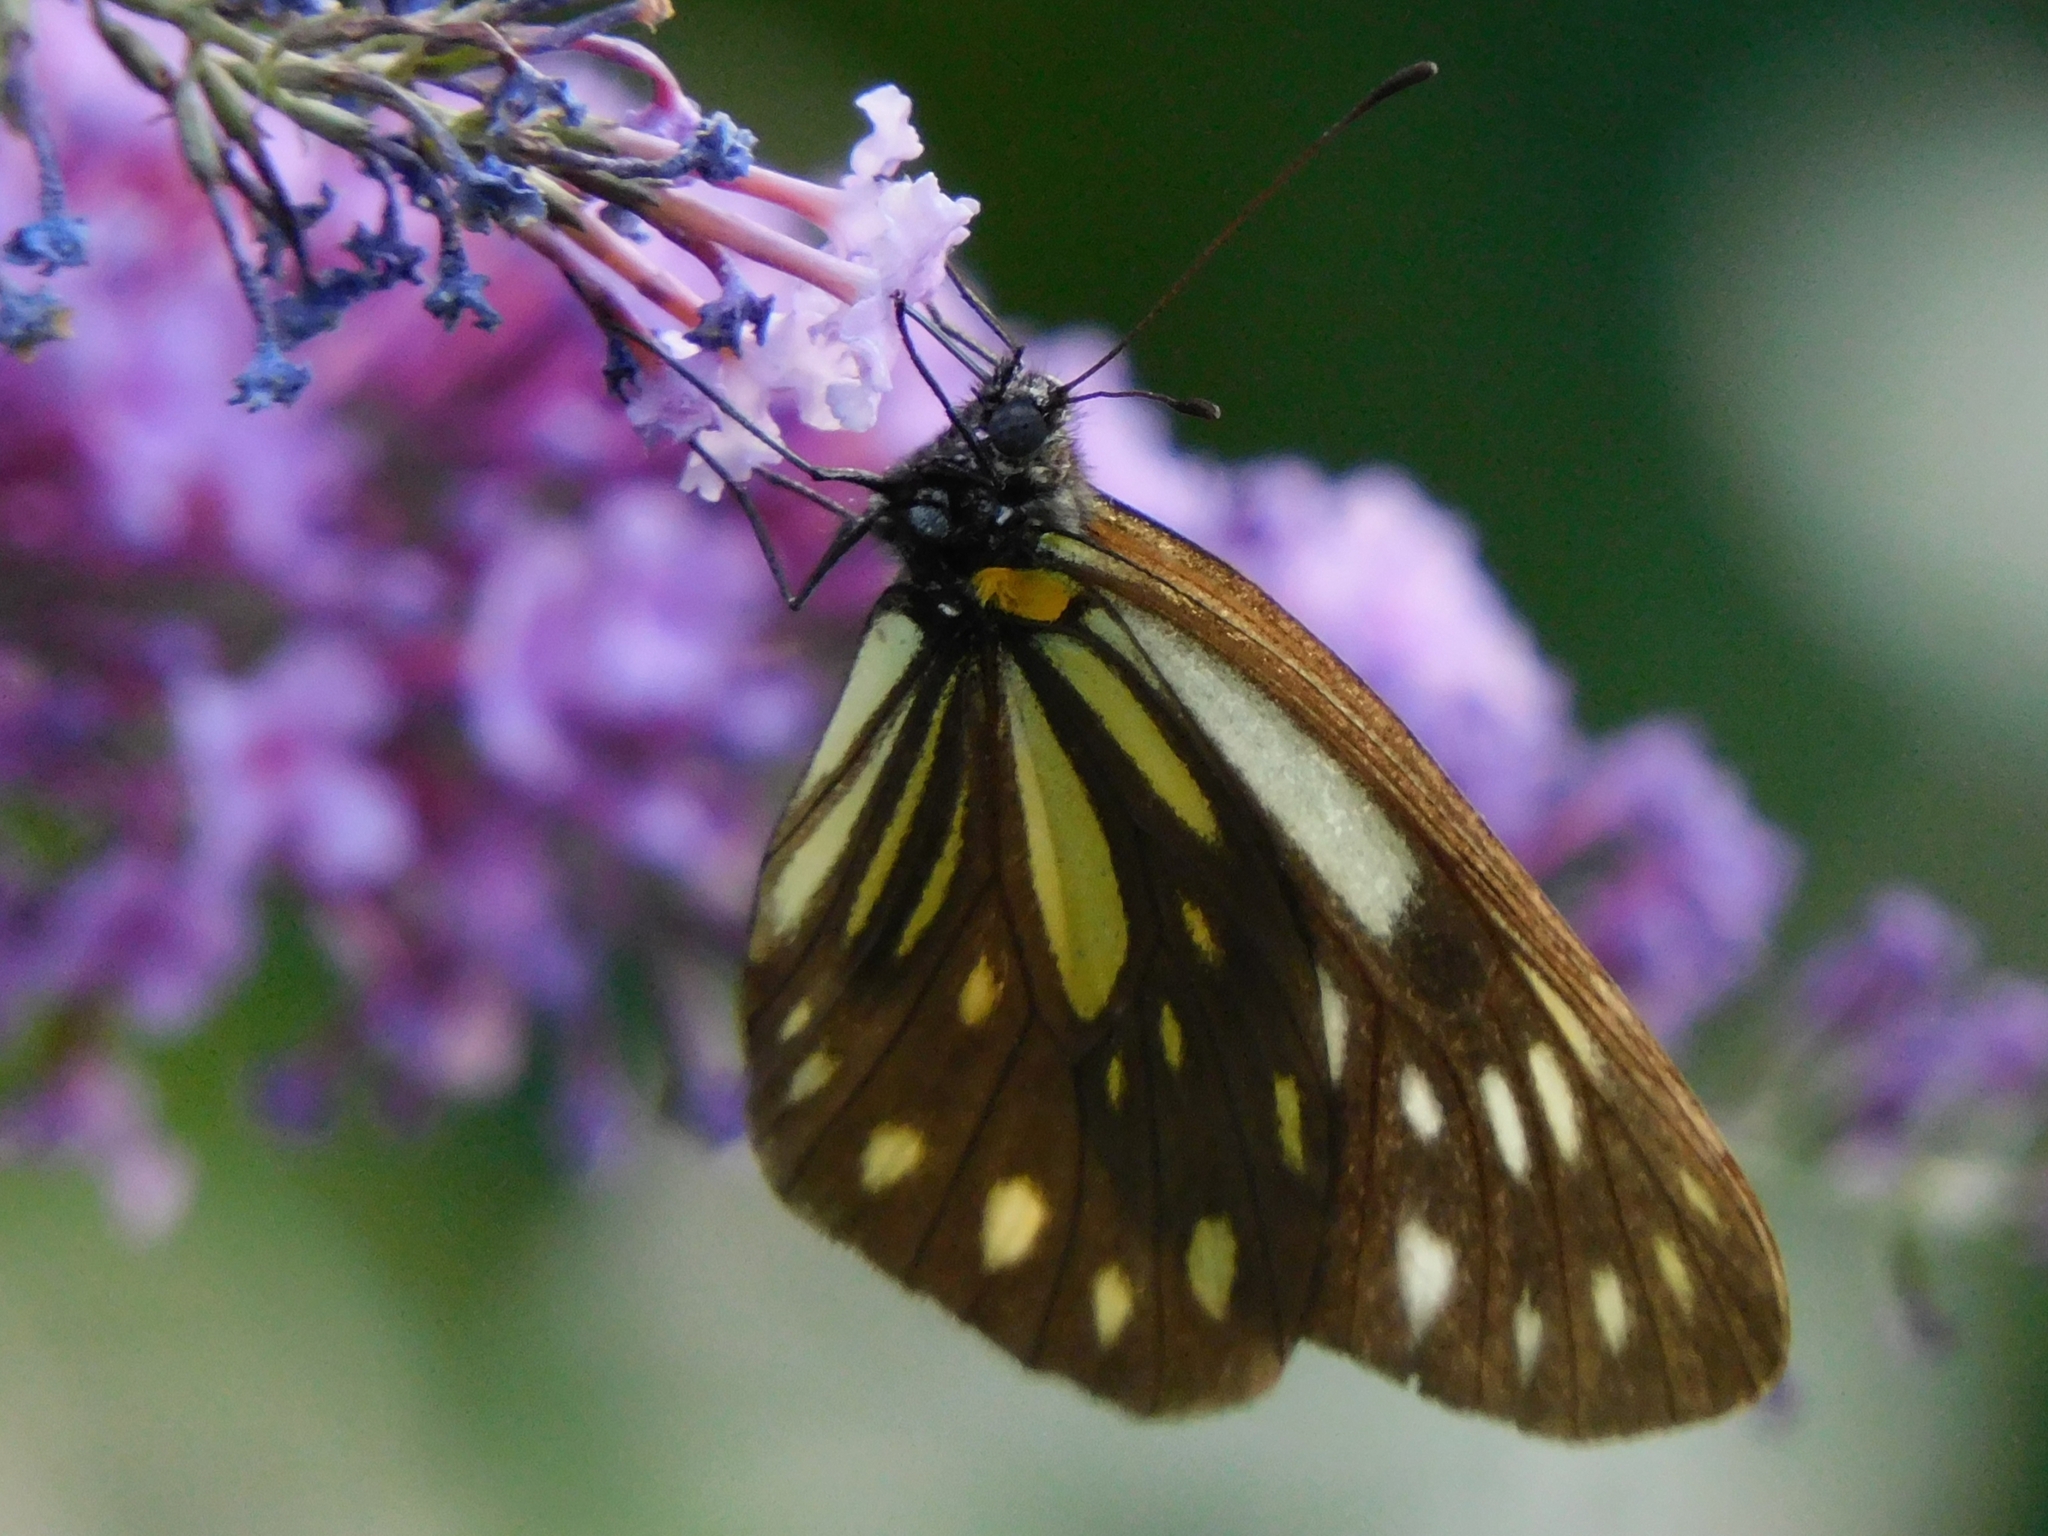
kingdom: Animalia
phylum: Arthropoda
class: Insecta
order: Lepidoptera
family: Pieridae
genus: Aporia
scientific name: Aporia agathon
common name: Great blackvein
